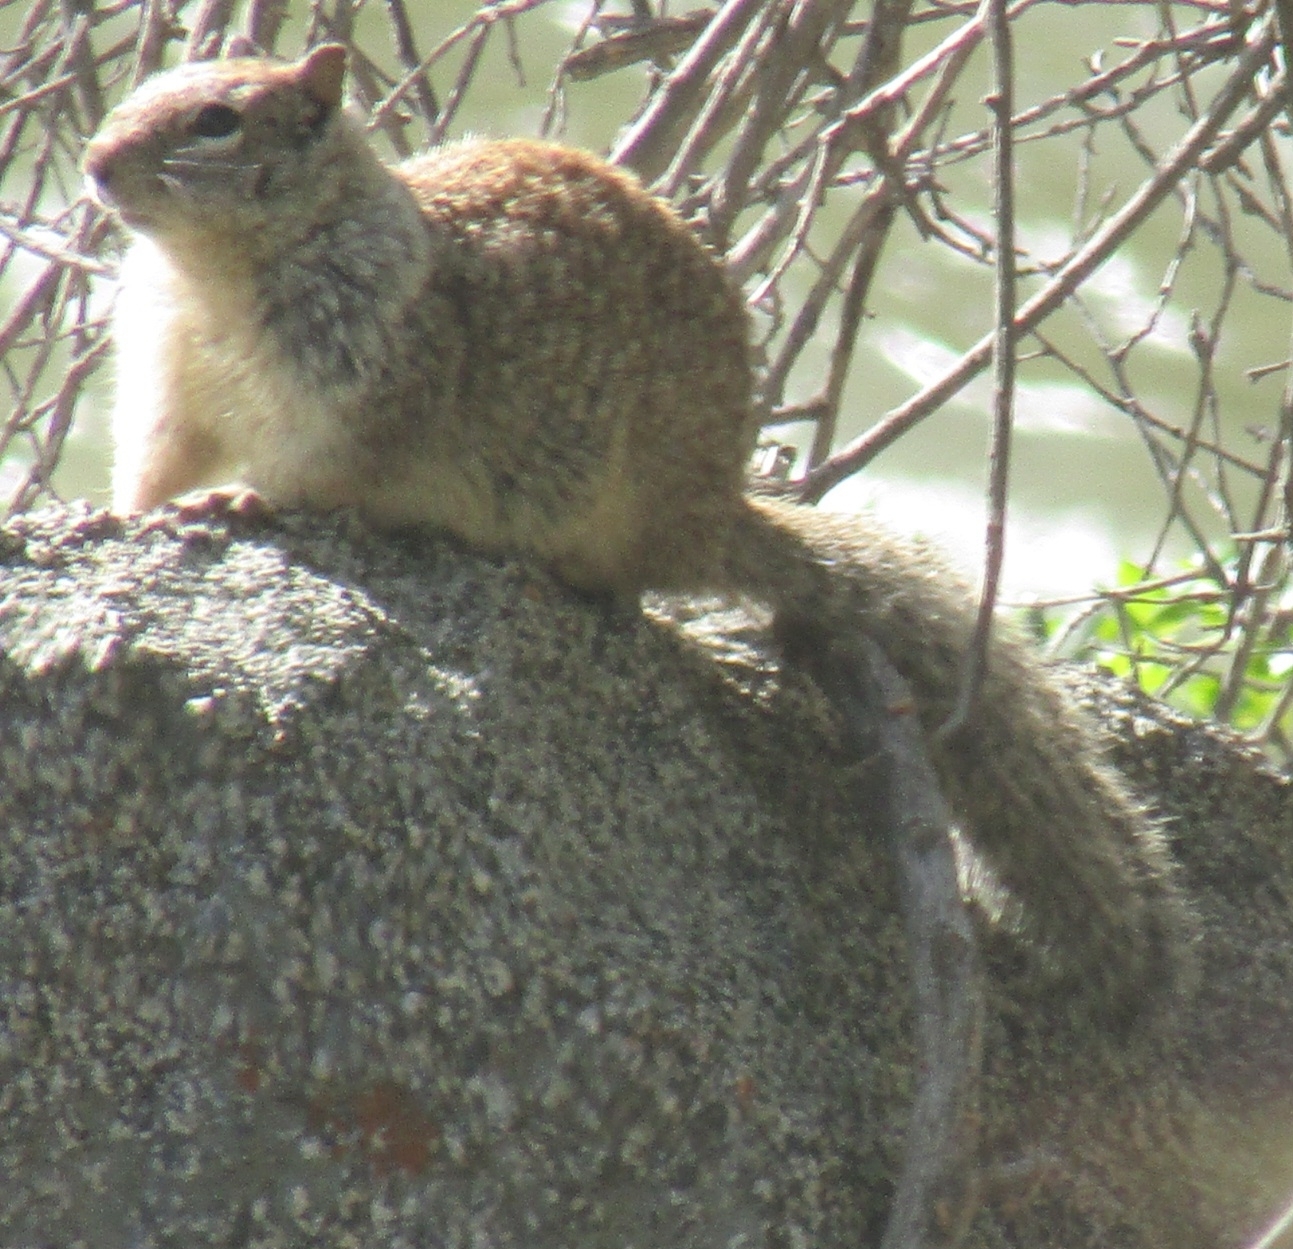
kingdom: Animalia
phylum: Chordata
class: Mammalia
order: Rodentia
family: Sciuridae
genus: Otospermophilus
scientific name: Otospermophilus beecheyi
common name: California ground squirrel
